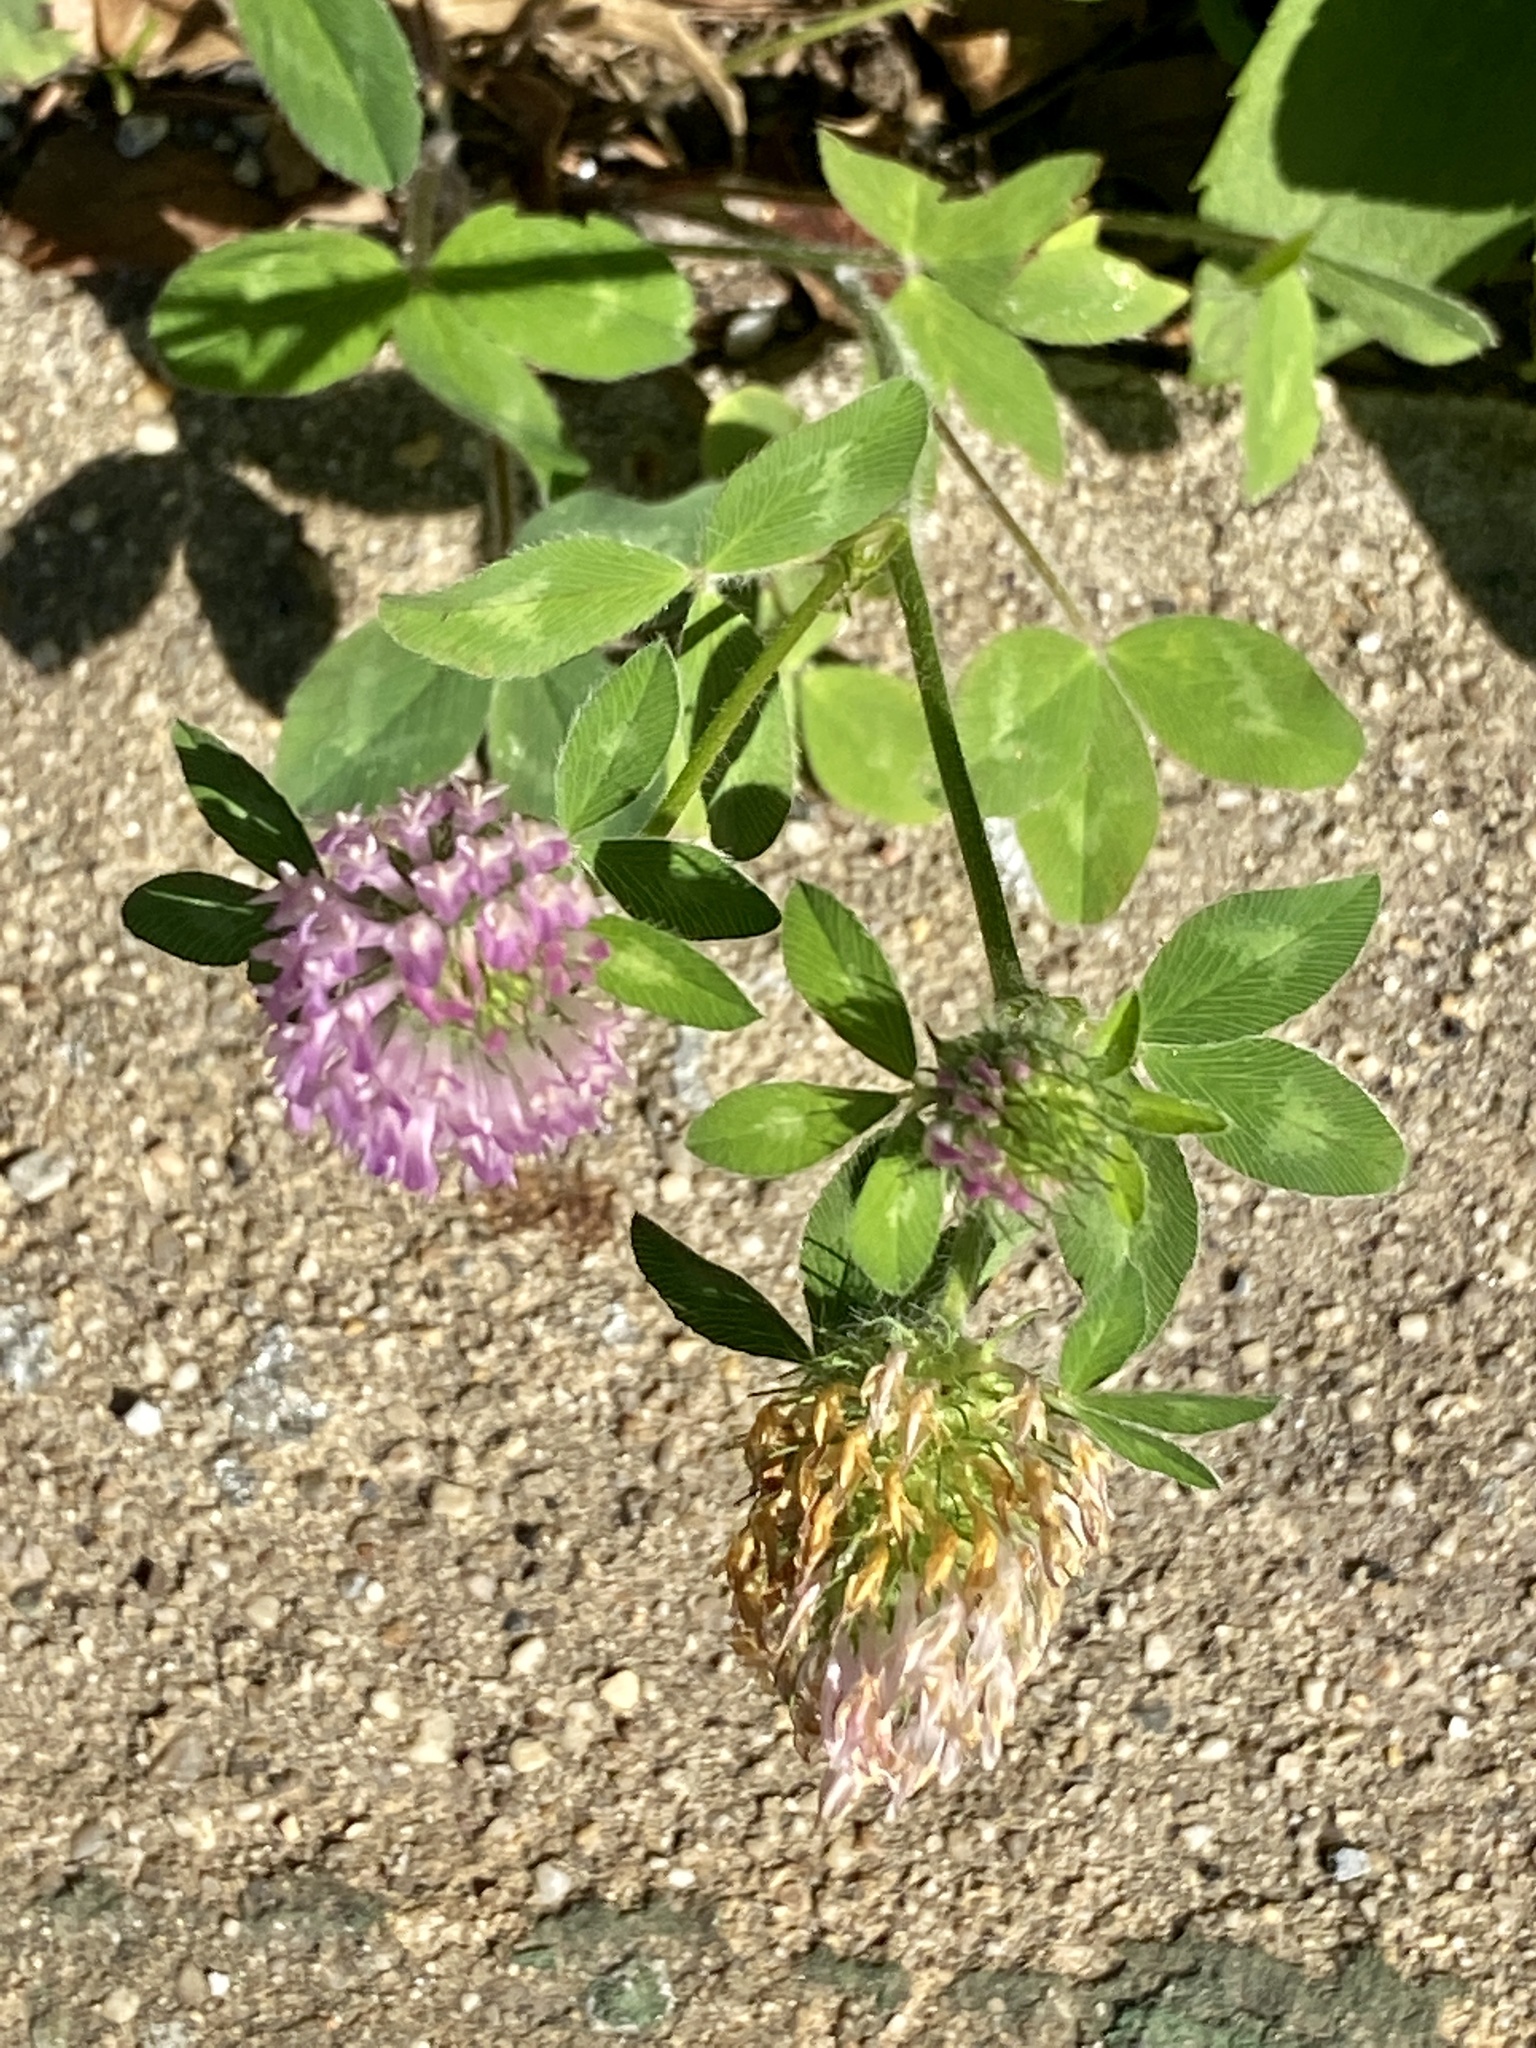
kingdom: Plantae
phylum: Tracheophyta
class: Magnoliopsida
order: Fabales
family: Fabaceae
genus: Trifolium
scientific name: Trifolium pratense
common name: Red clover
